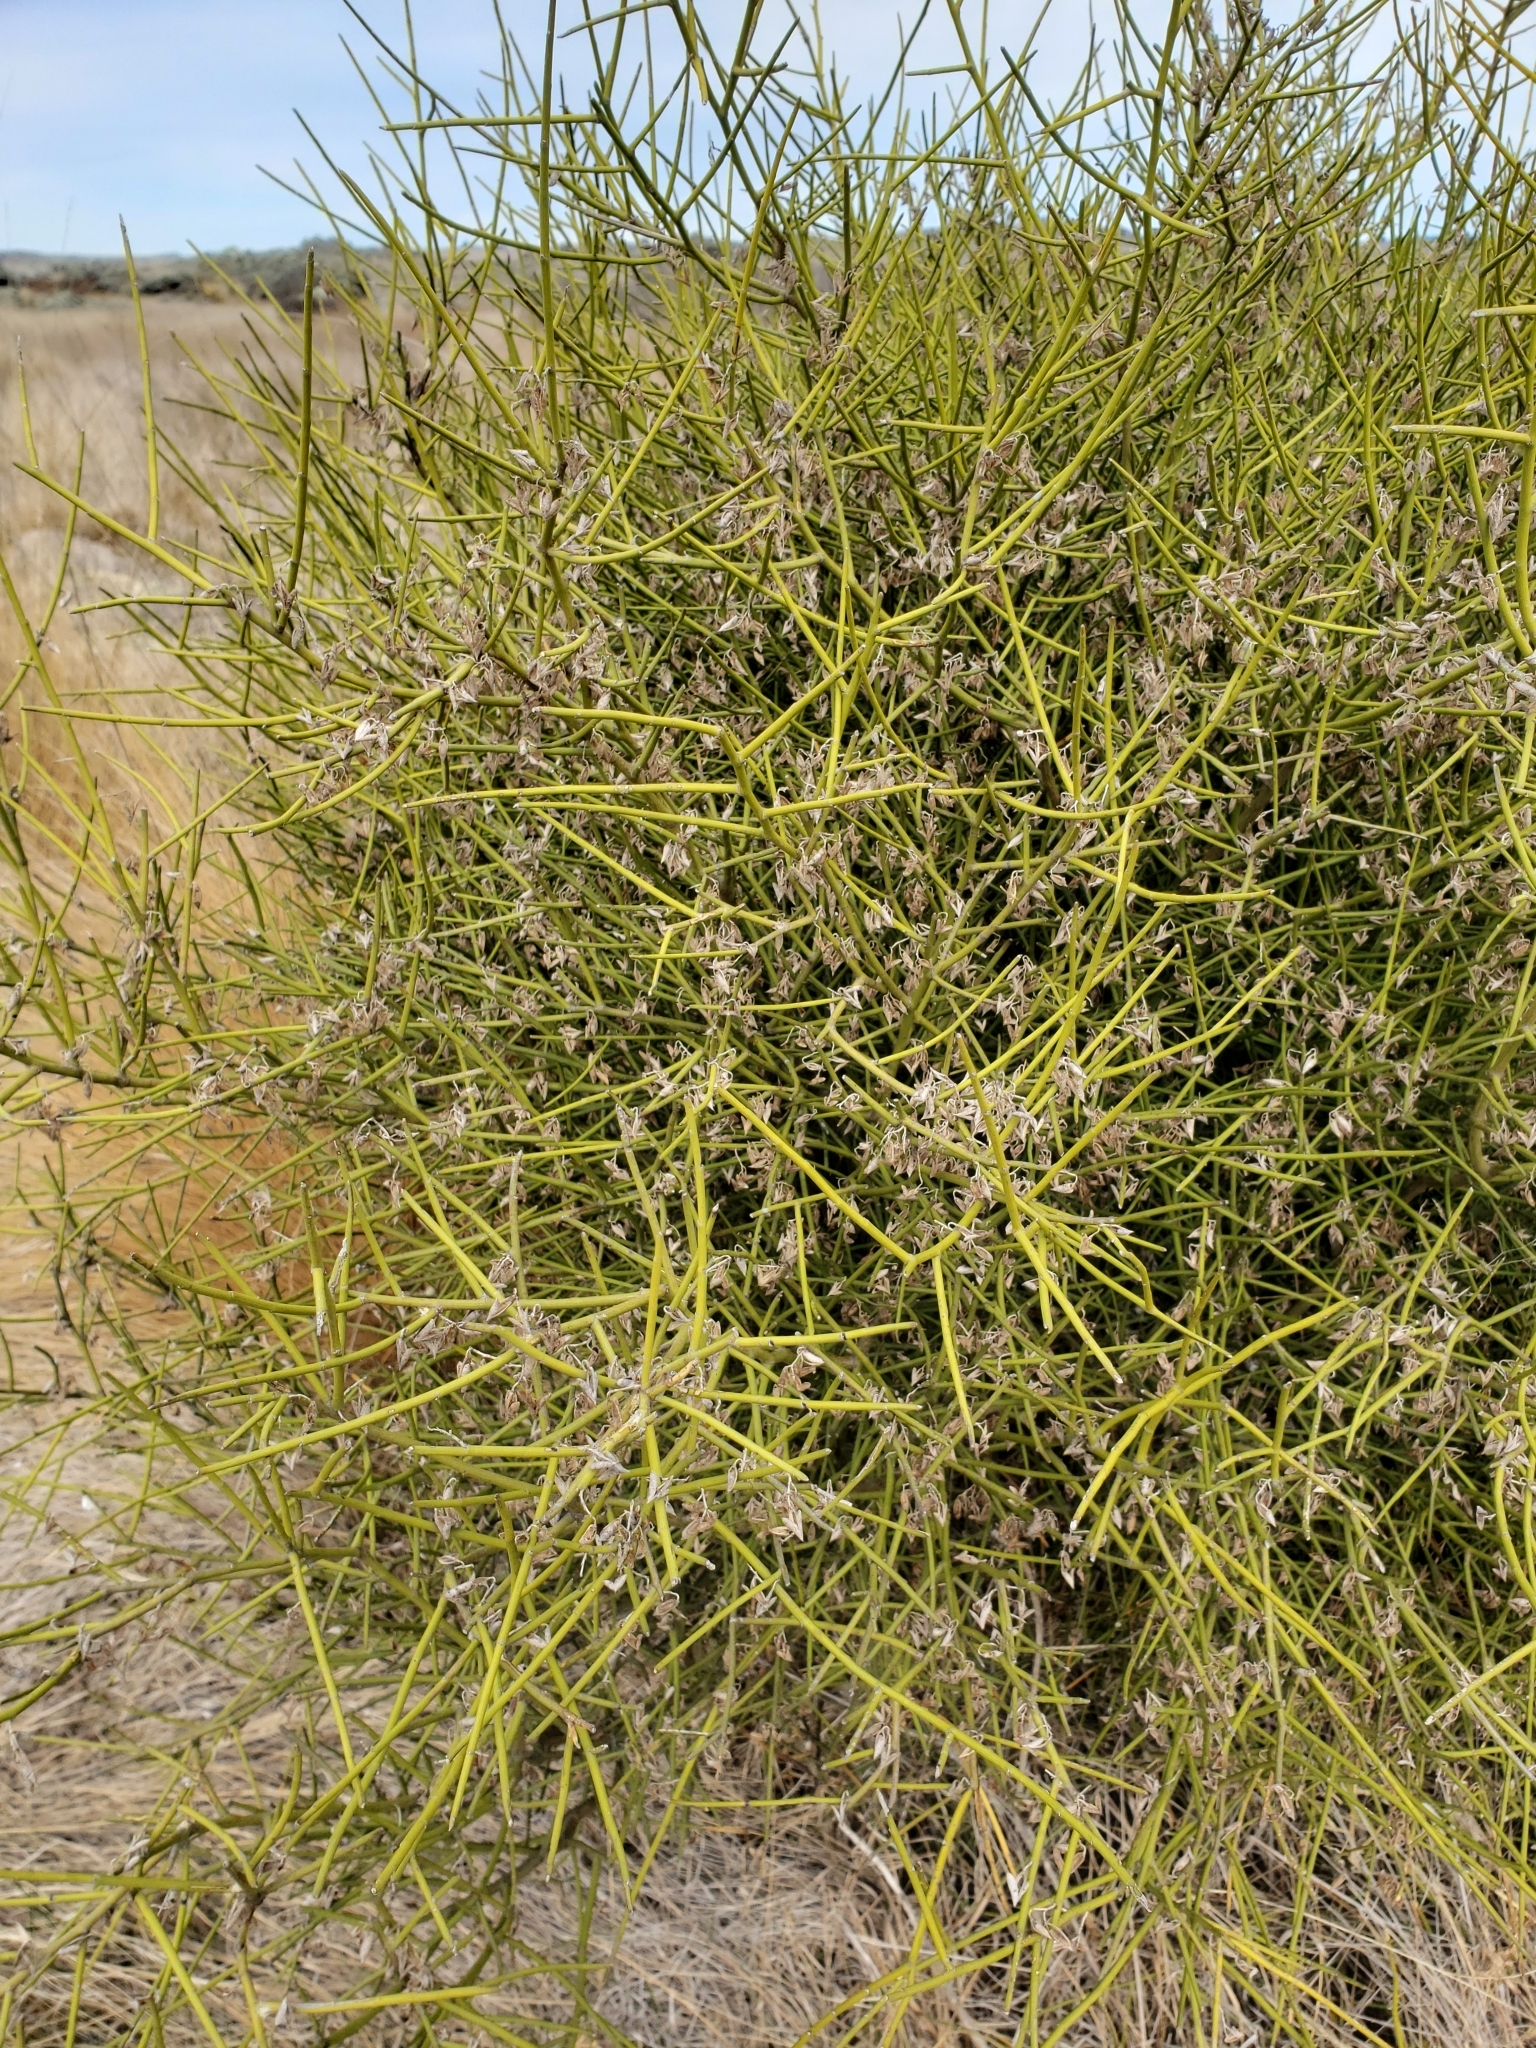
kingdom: Plantae
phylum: Tracheophyta
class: Magnoliopsida
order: Fabales
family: Fabaceae
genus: Carmichaelia
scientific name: Carmichaelia petriei
